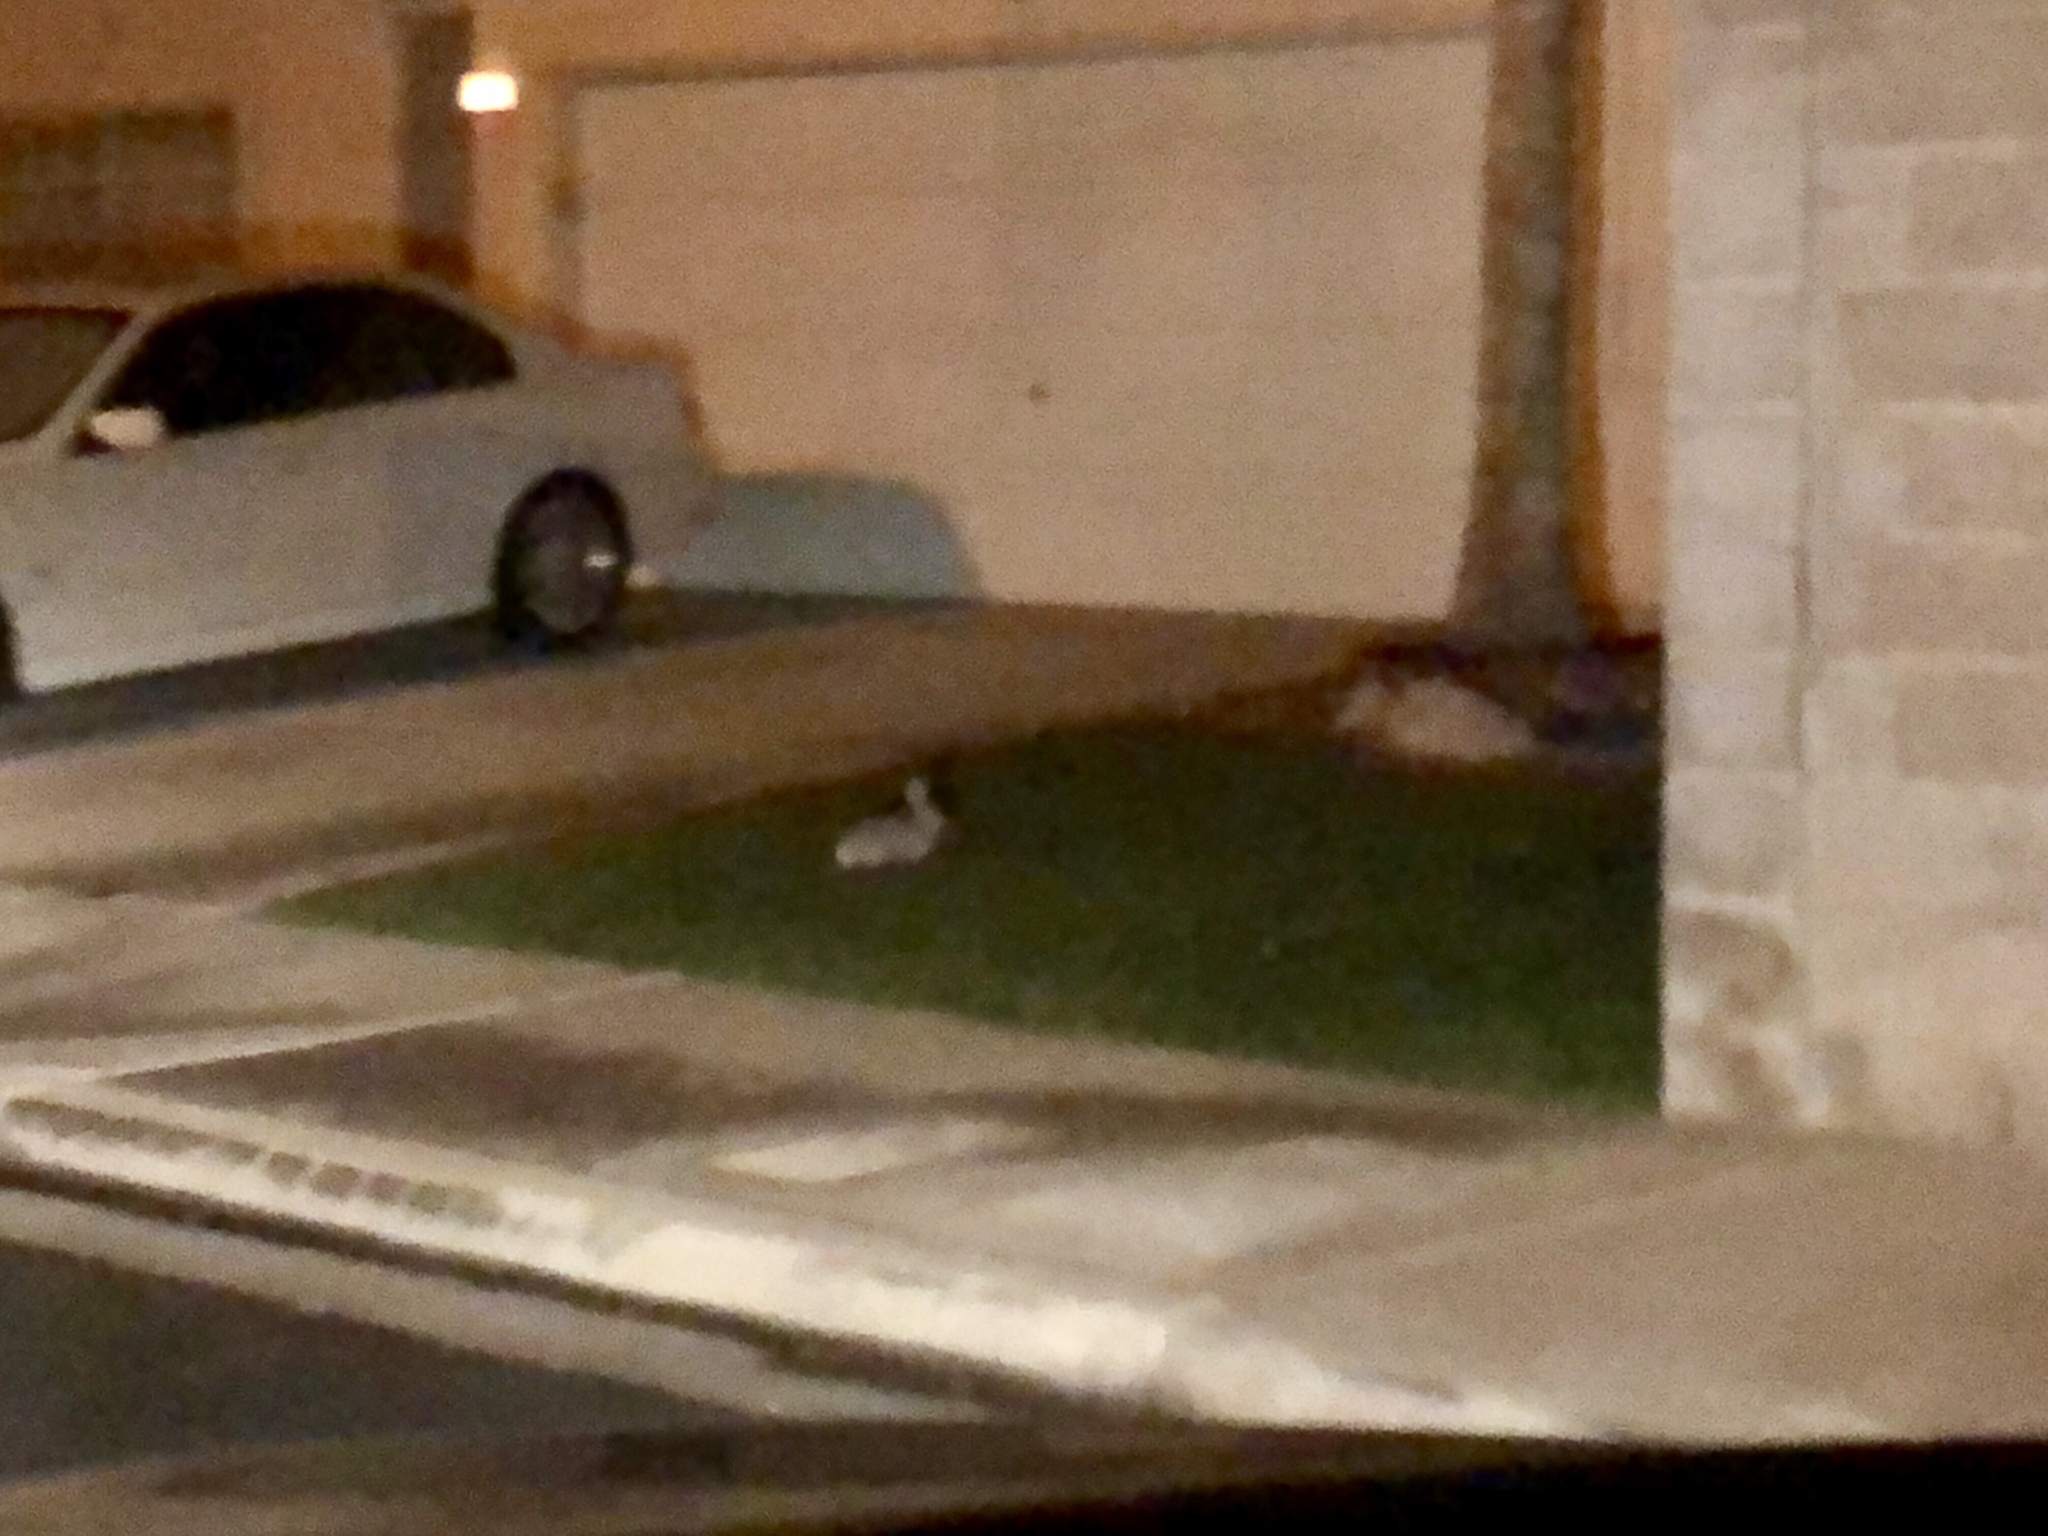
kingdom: Animalia
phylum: Chordata
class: Mammalia
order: Lagomorpha
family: Leporidae
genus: Sylvilagus
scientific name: Sylvilagus audubonii
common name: Desert cottontail
